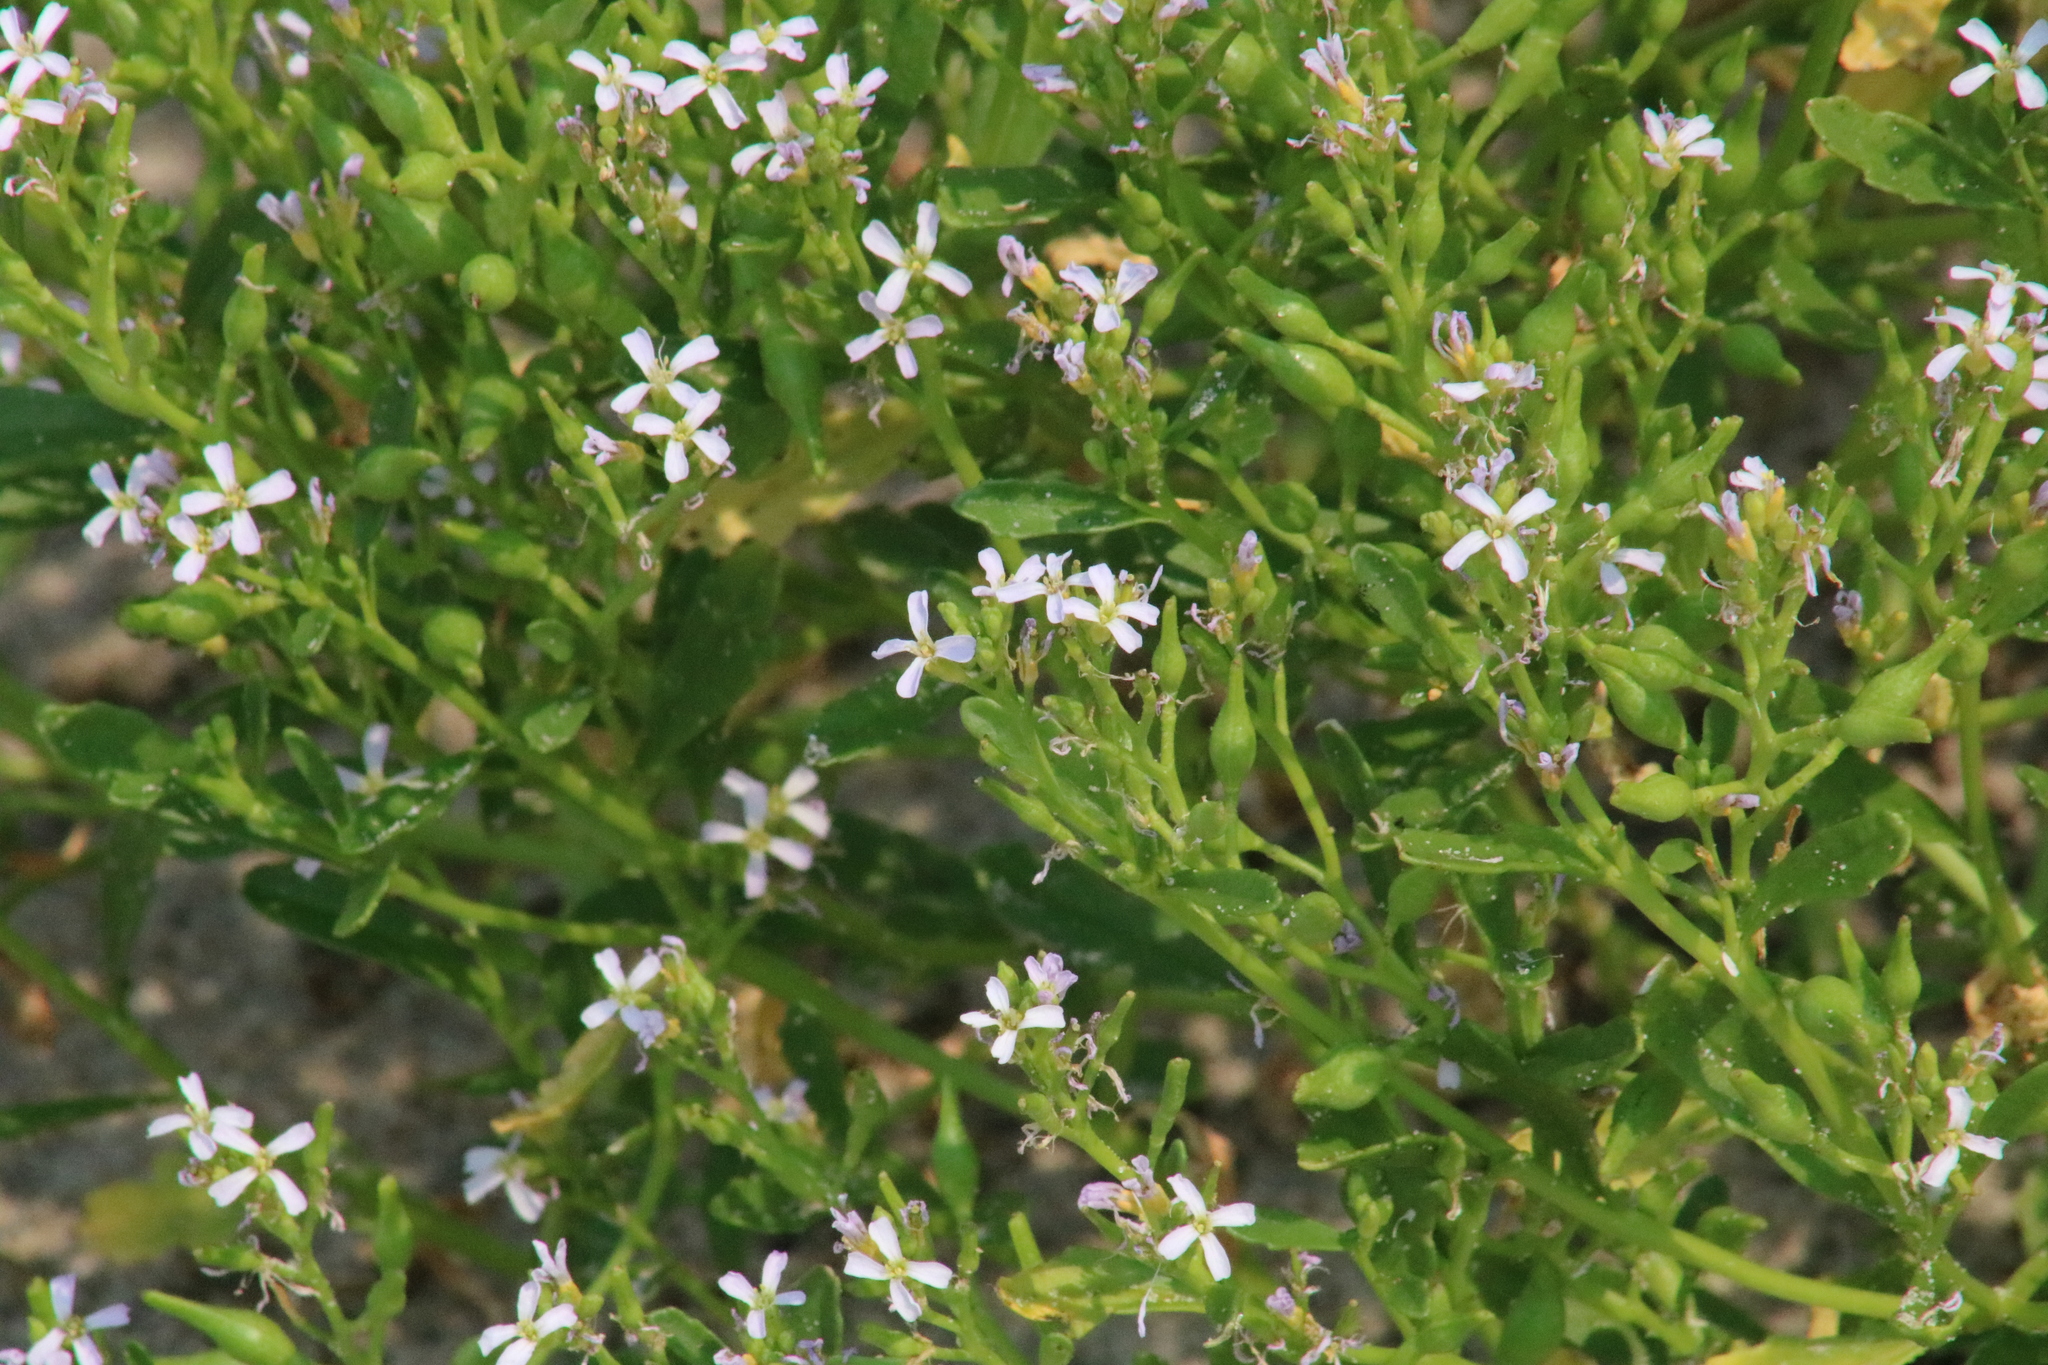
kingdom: Plantae
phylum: Tracheophyta
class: Magnoliopsida
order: Brassicales
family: Brassicaceae
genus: Cakile
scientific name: Cakile edentula
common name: American sea rocket
